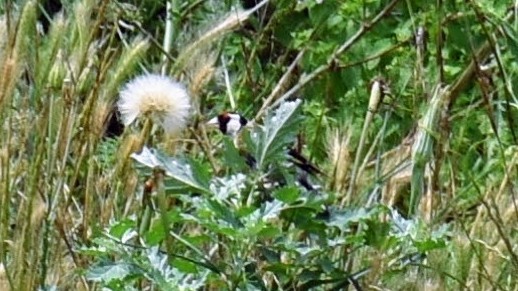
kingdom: Animalia
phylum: Chordata
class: Aves
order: Passeriformes
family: Fringillidae
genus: Carduelis
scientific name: Carduelis carduelis
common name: European goldfinch
